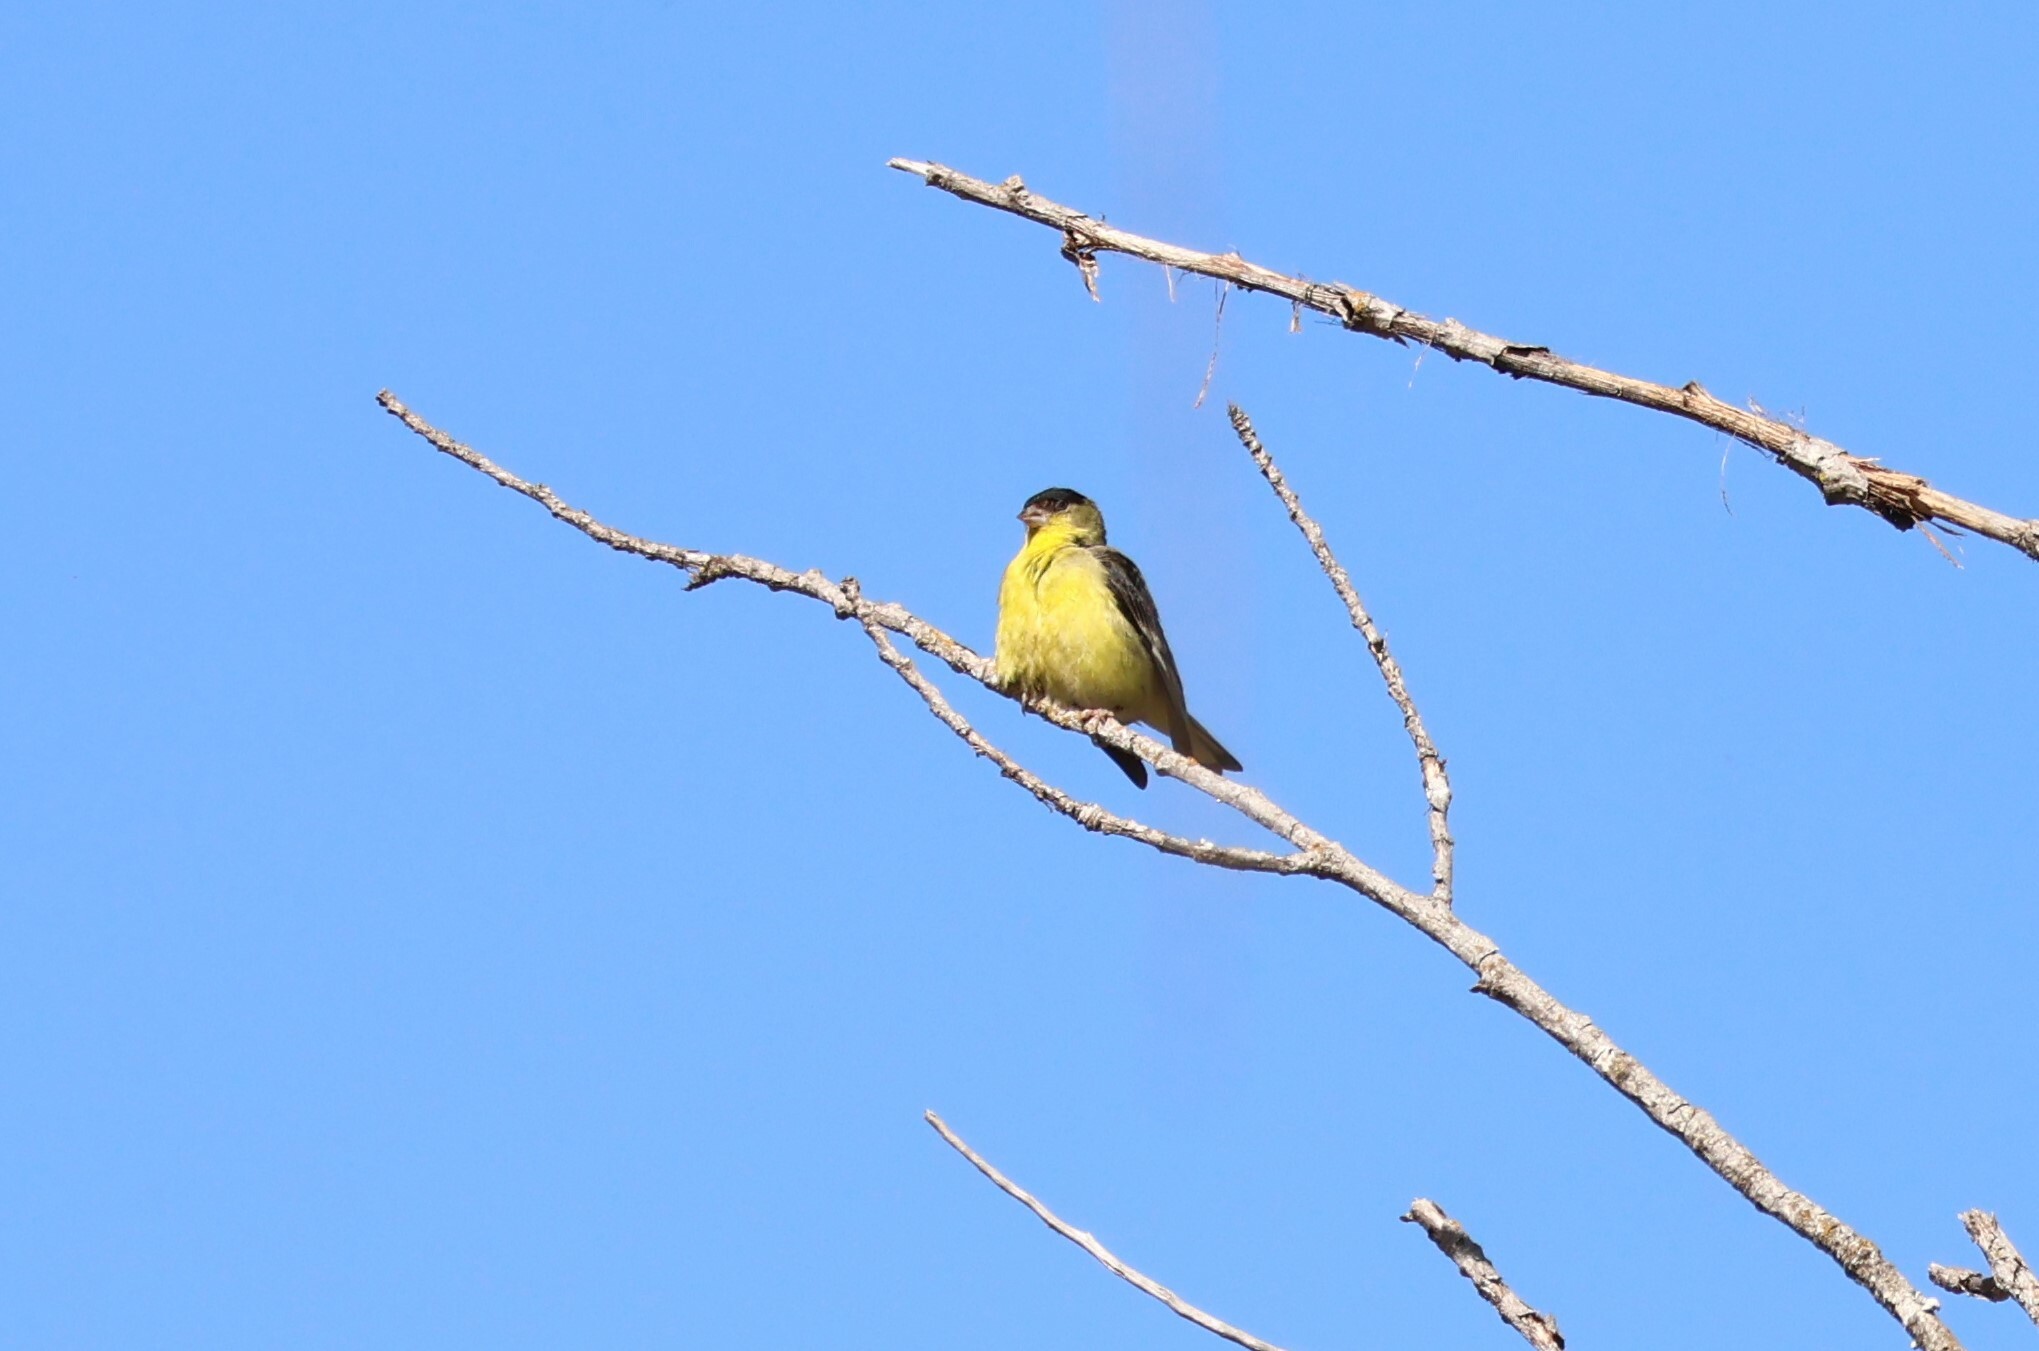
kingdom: Animalia
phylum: Chordata
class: Aves
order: Passeriformes
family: Fringillidae
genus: Spinus
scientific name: Spinus psaltria
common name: Lesser goldfinch
